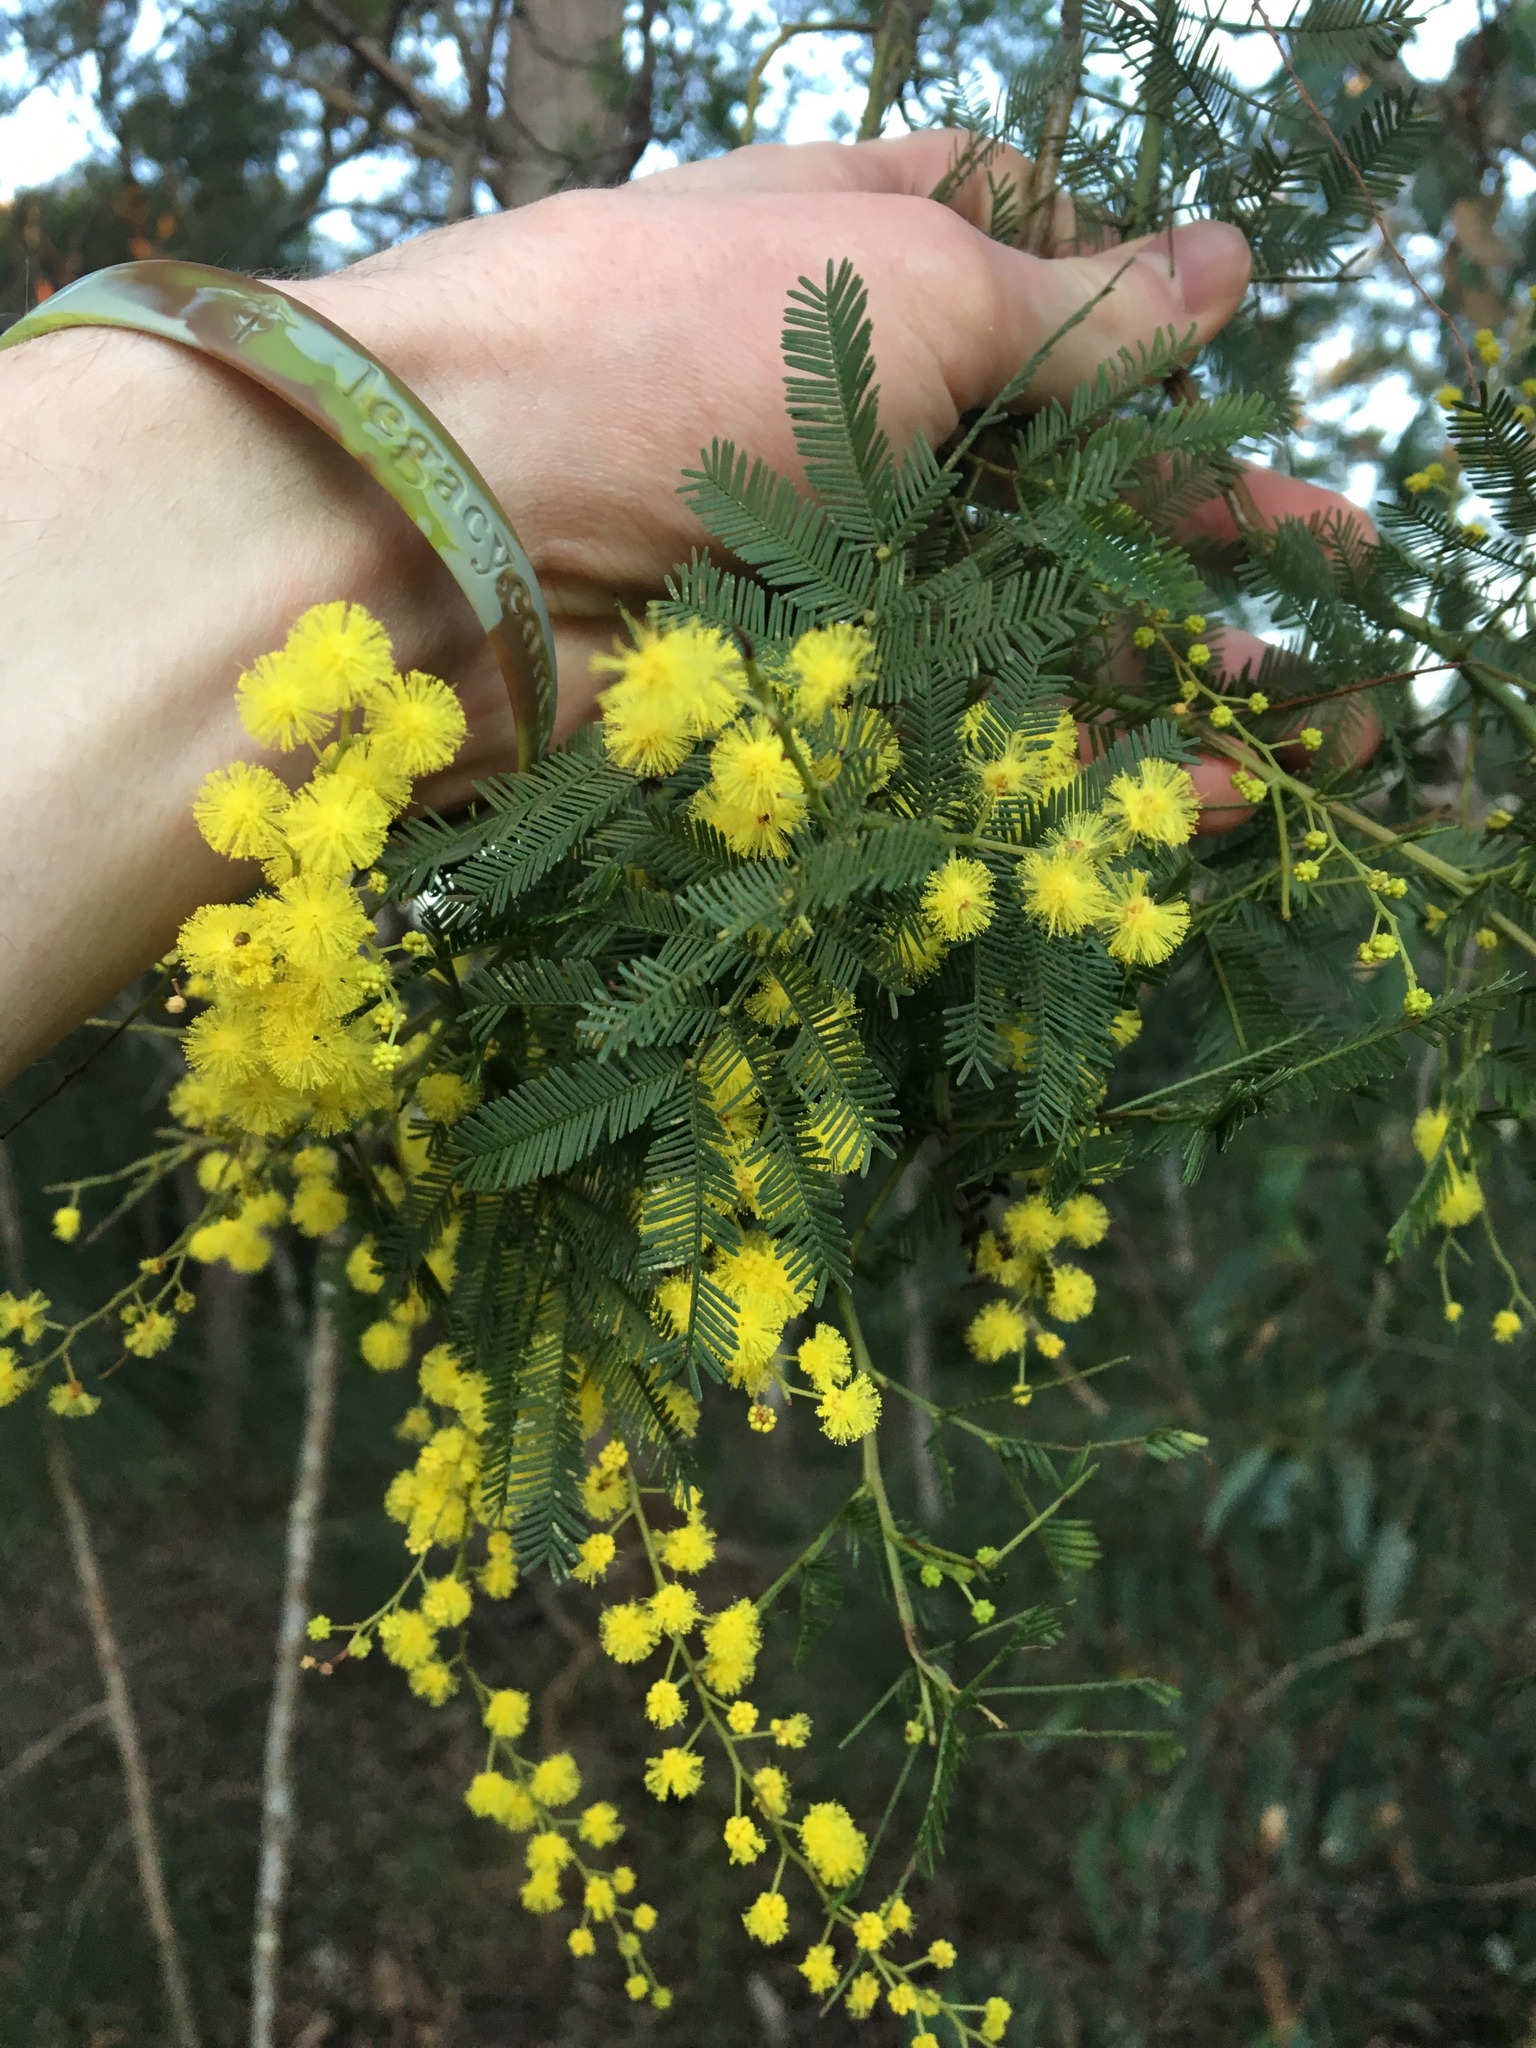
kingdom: Plantae
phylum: Tracheophyta
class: Magnoliopsida
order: Fabales
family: Fabaceae
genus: Acacia
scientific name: Acacia decurrens
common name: Green wattle
